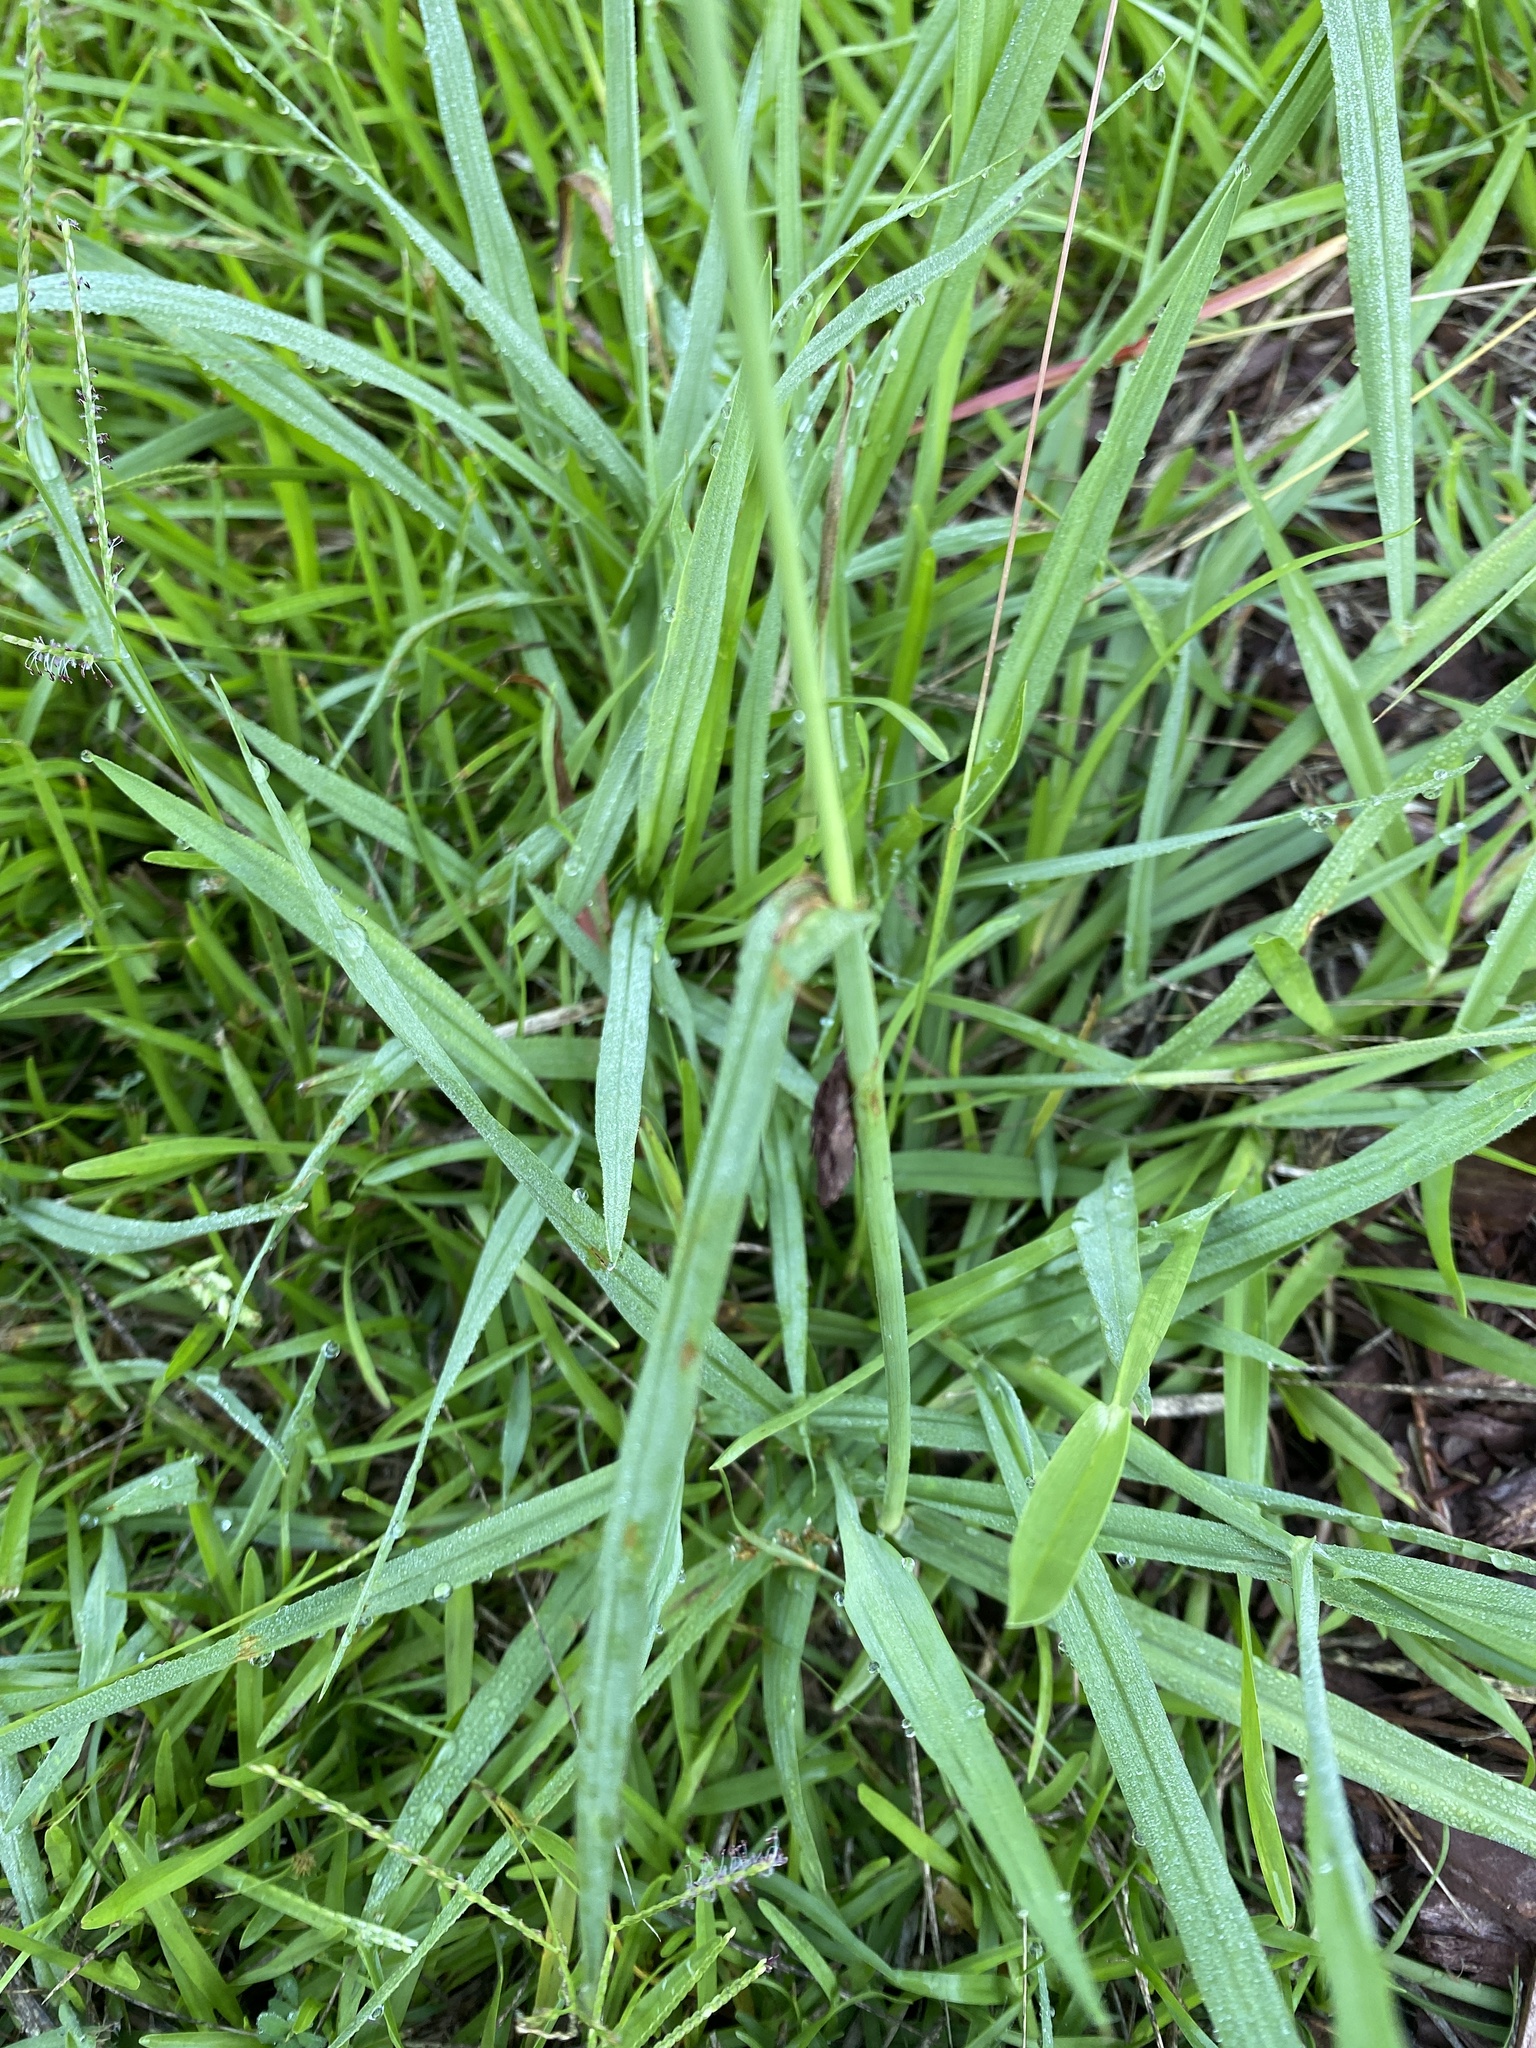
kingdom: Plantae
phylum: Tracheophyta
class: Liliopsida
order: Poales
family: Poaceae
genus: Paspalum
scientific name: Paspalum dilatatum
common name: Dallisgrass
